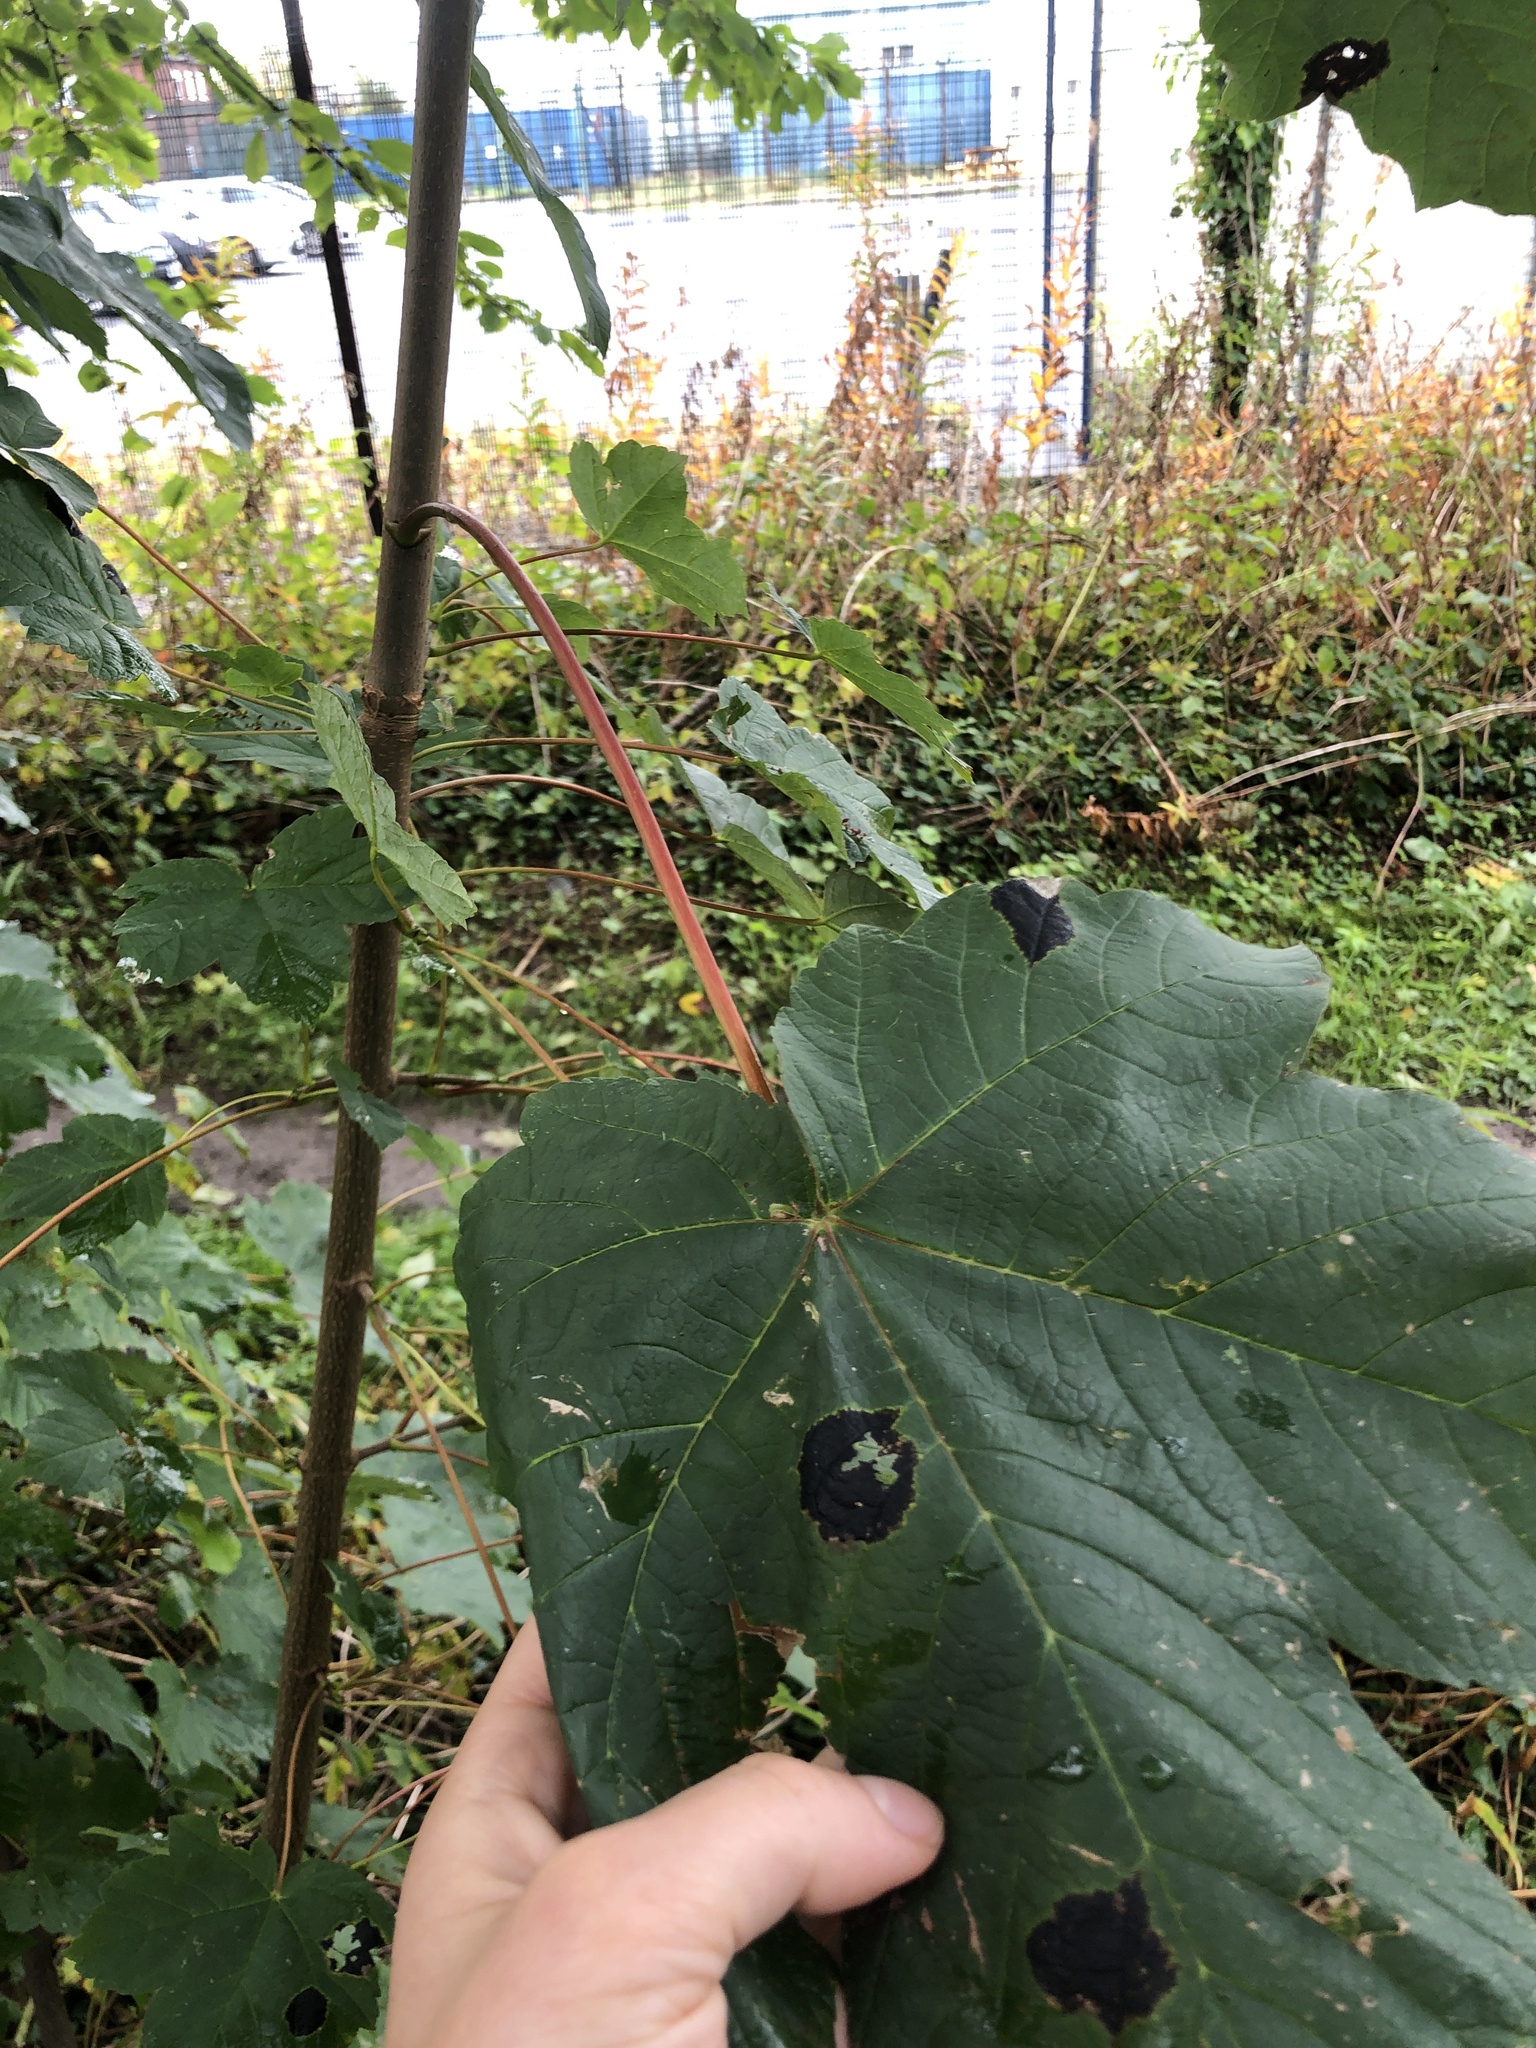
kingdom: Fungi
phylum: Ascomycota
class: Leotiomycetes
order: Rhytismatales
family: Rhytismataceae
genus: Rhytisma
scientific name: Rhytisma acerinum
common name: European tar spot
